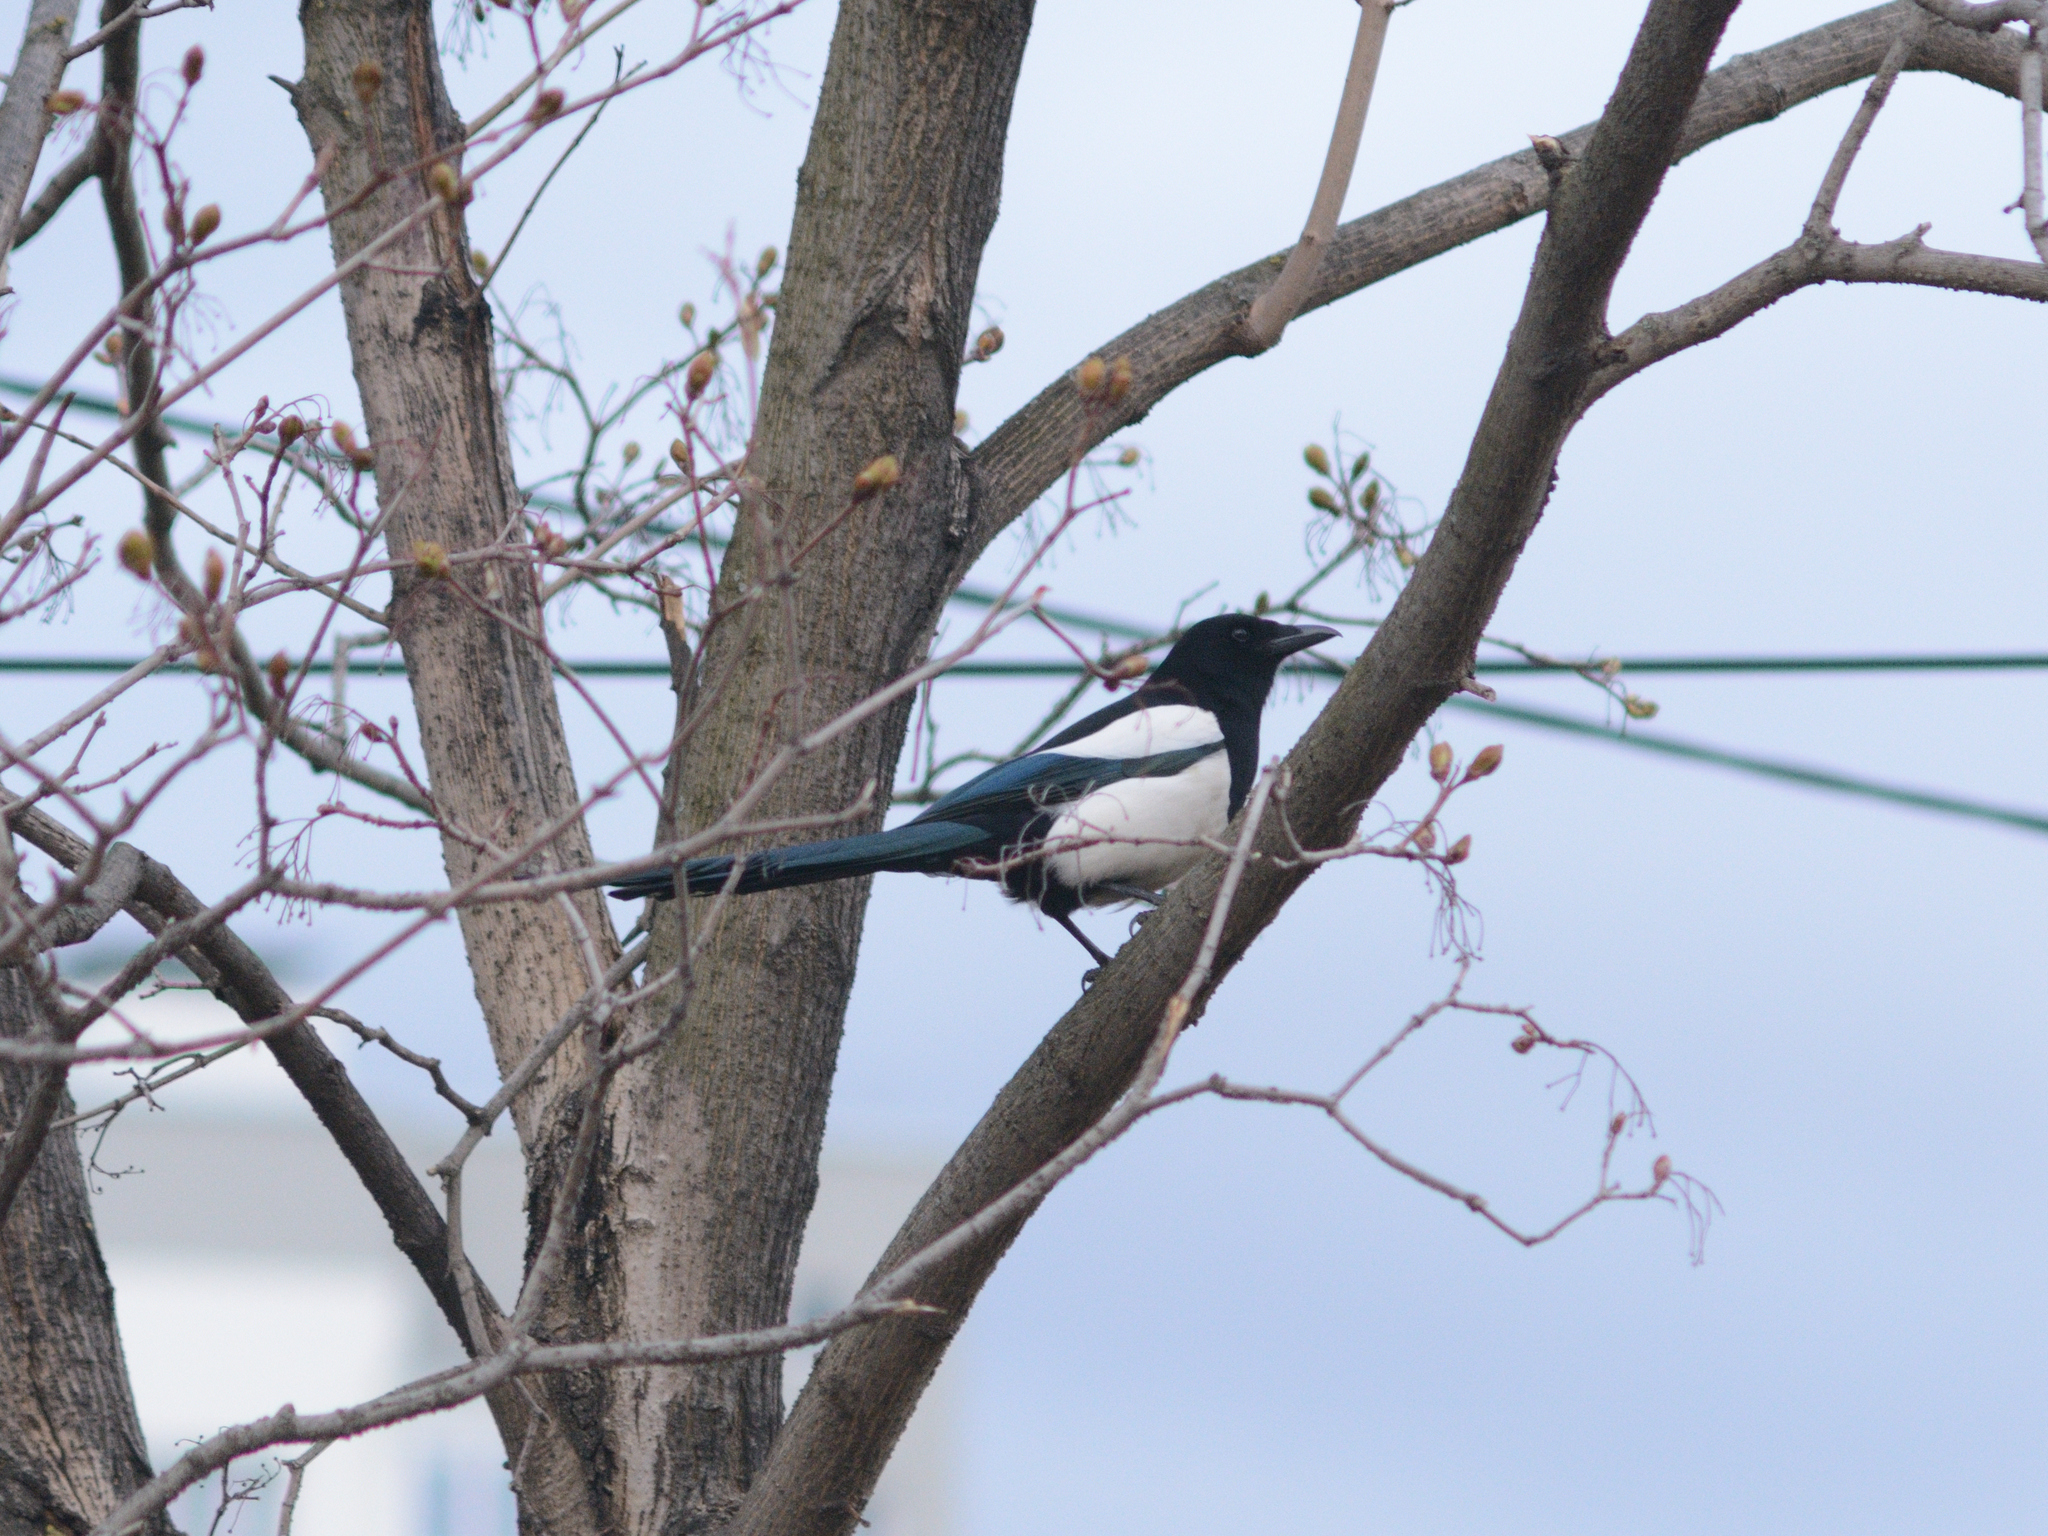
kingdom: Animalia
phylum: Chordata
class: Aves
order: Passeriformes
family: Corvidae
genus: Pica
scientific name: Pica pica
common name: Eurasian magpie
